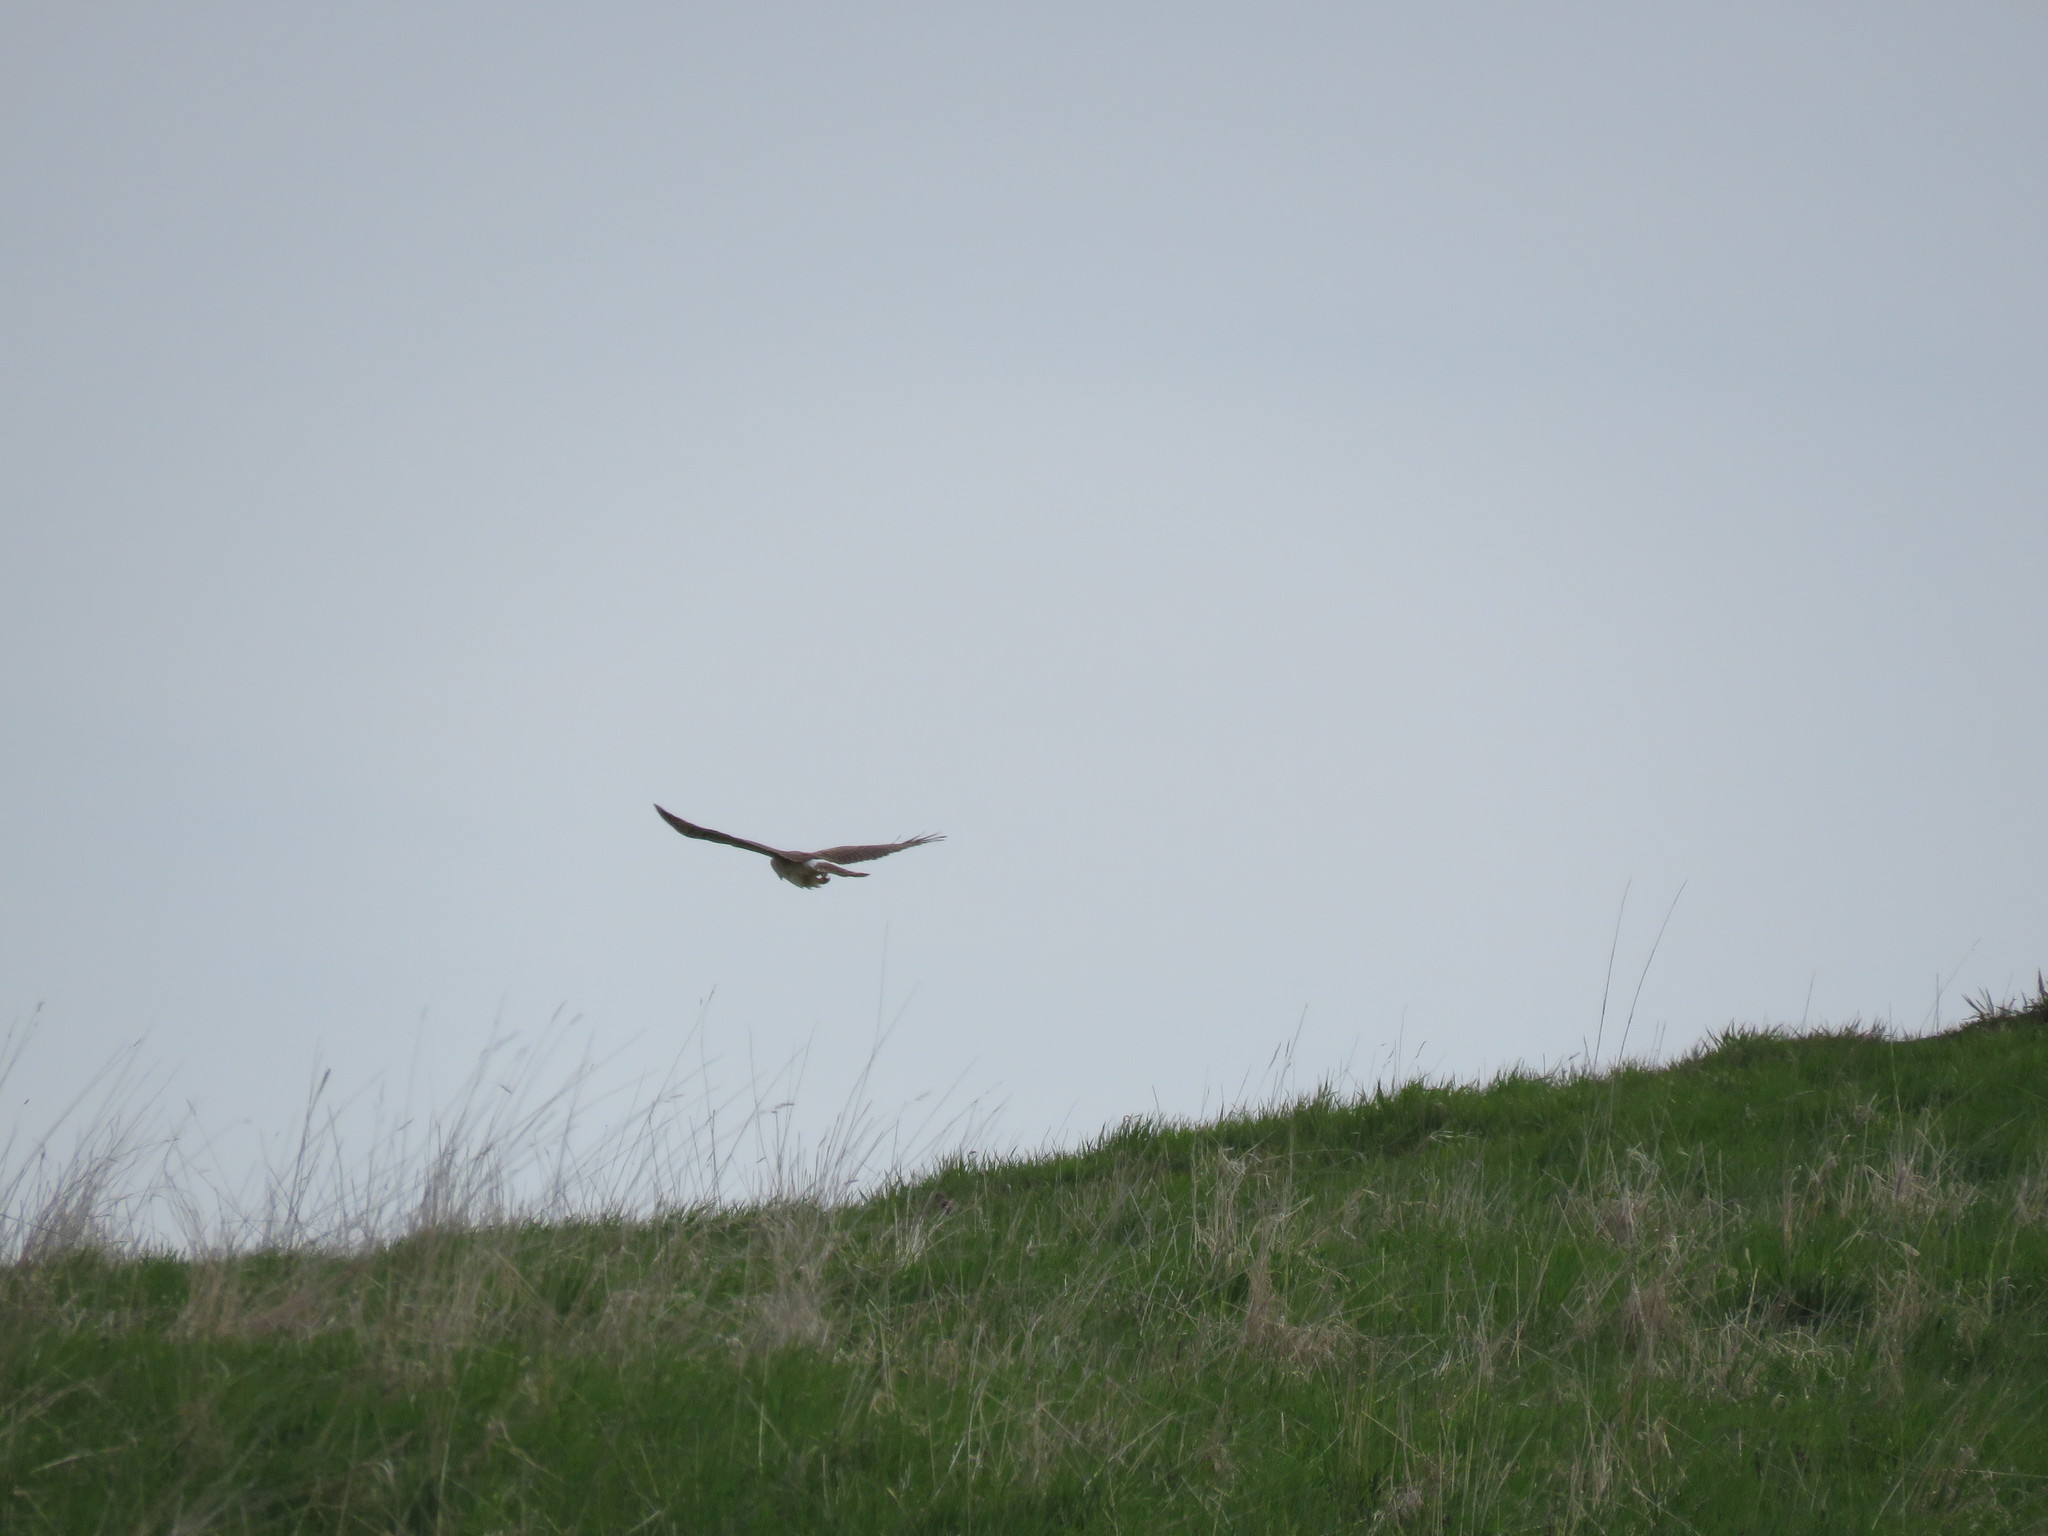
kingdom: Animalia
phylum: Chordata
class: Aves
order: Accipitriformes
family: Accipitridae
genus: Circus
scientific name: Circus cyaneus
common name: Hen harrier
